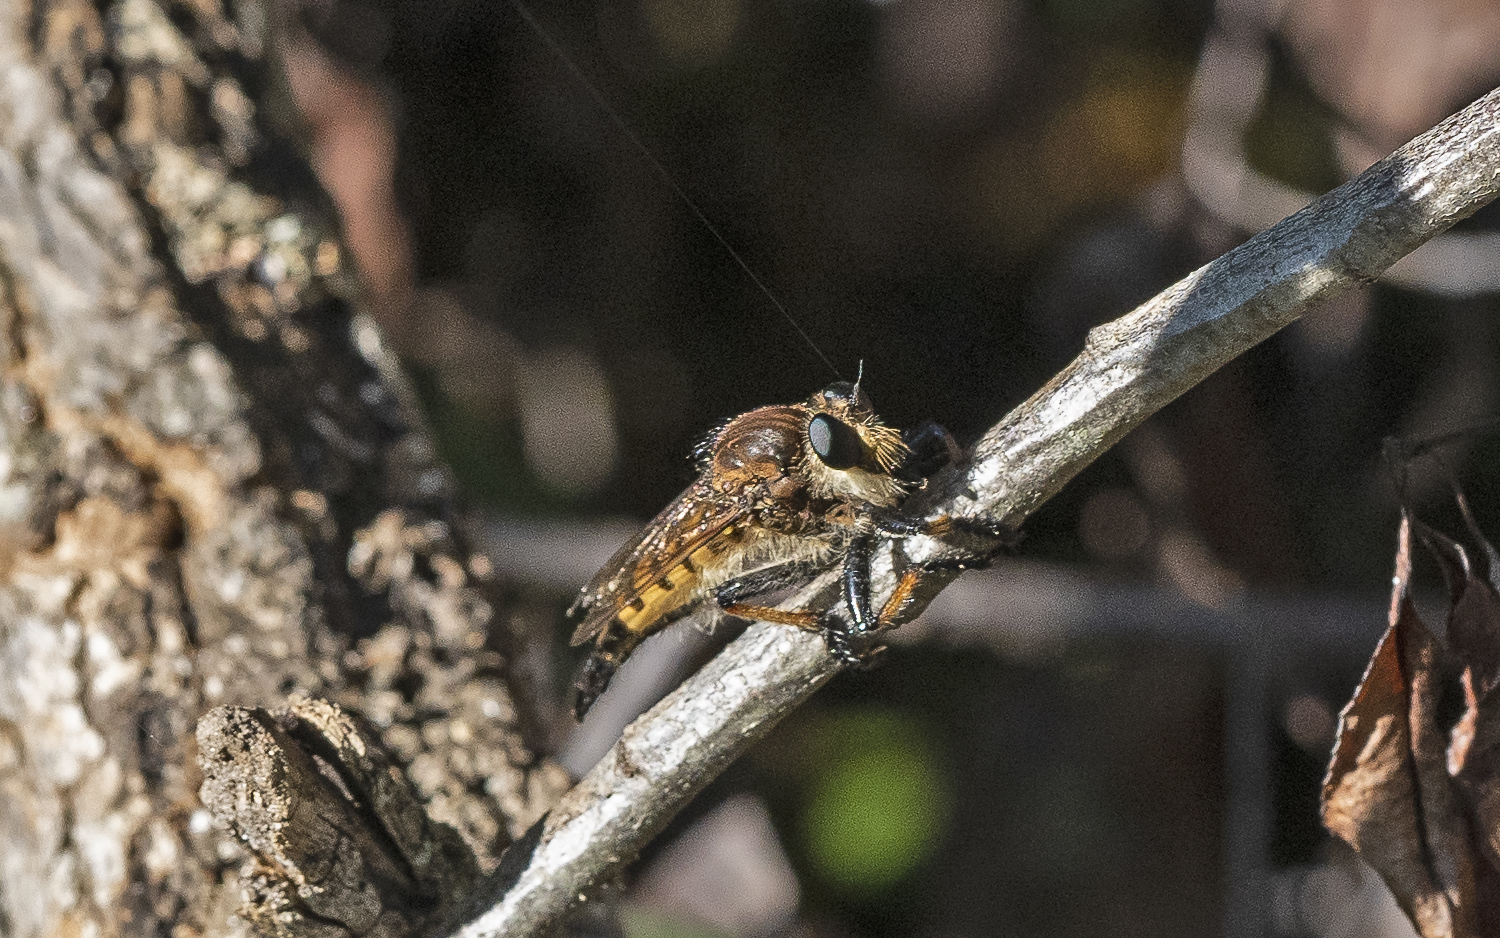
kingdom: Animalia
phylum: Arthropoda
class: Insecta
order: Diptera
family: Asilidae
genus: Promachus
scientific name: Promachus rufipes
